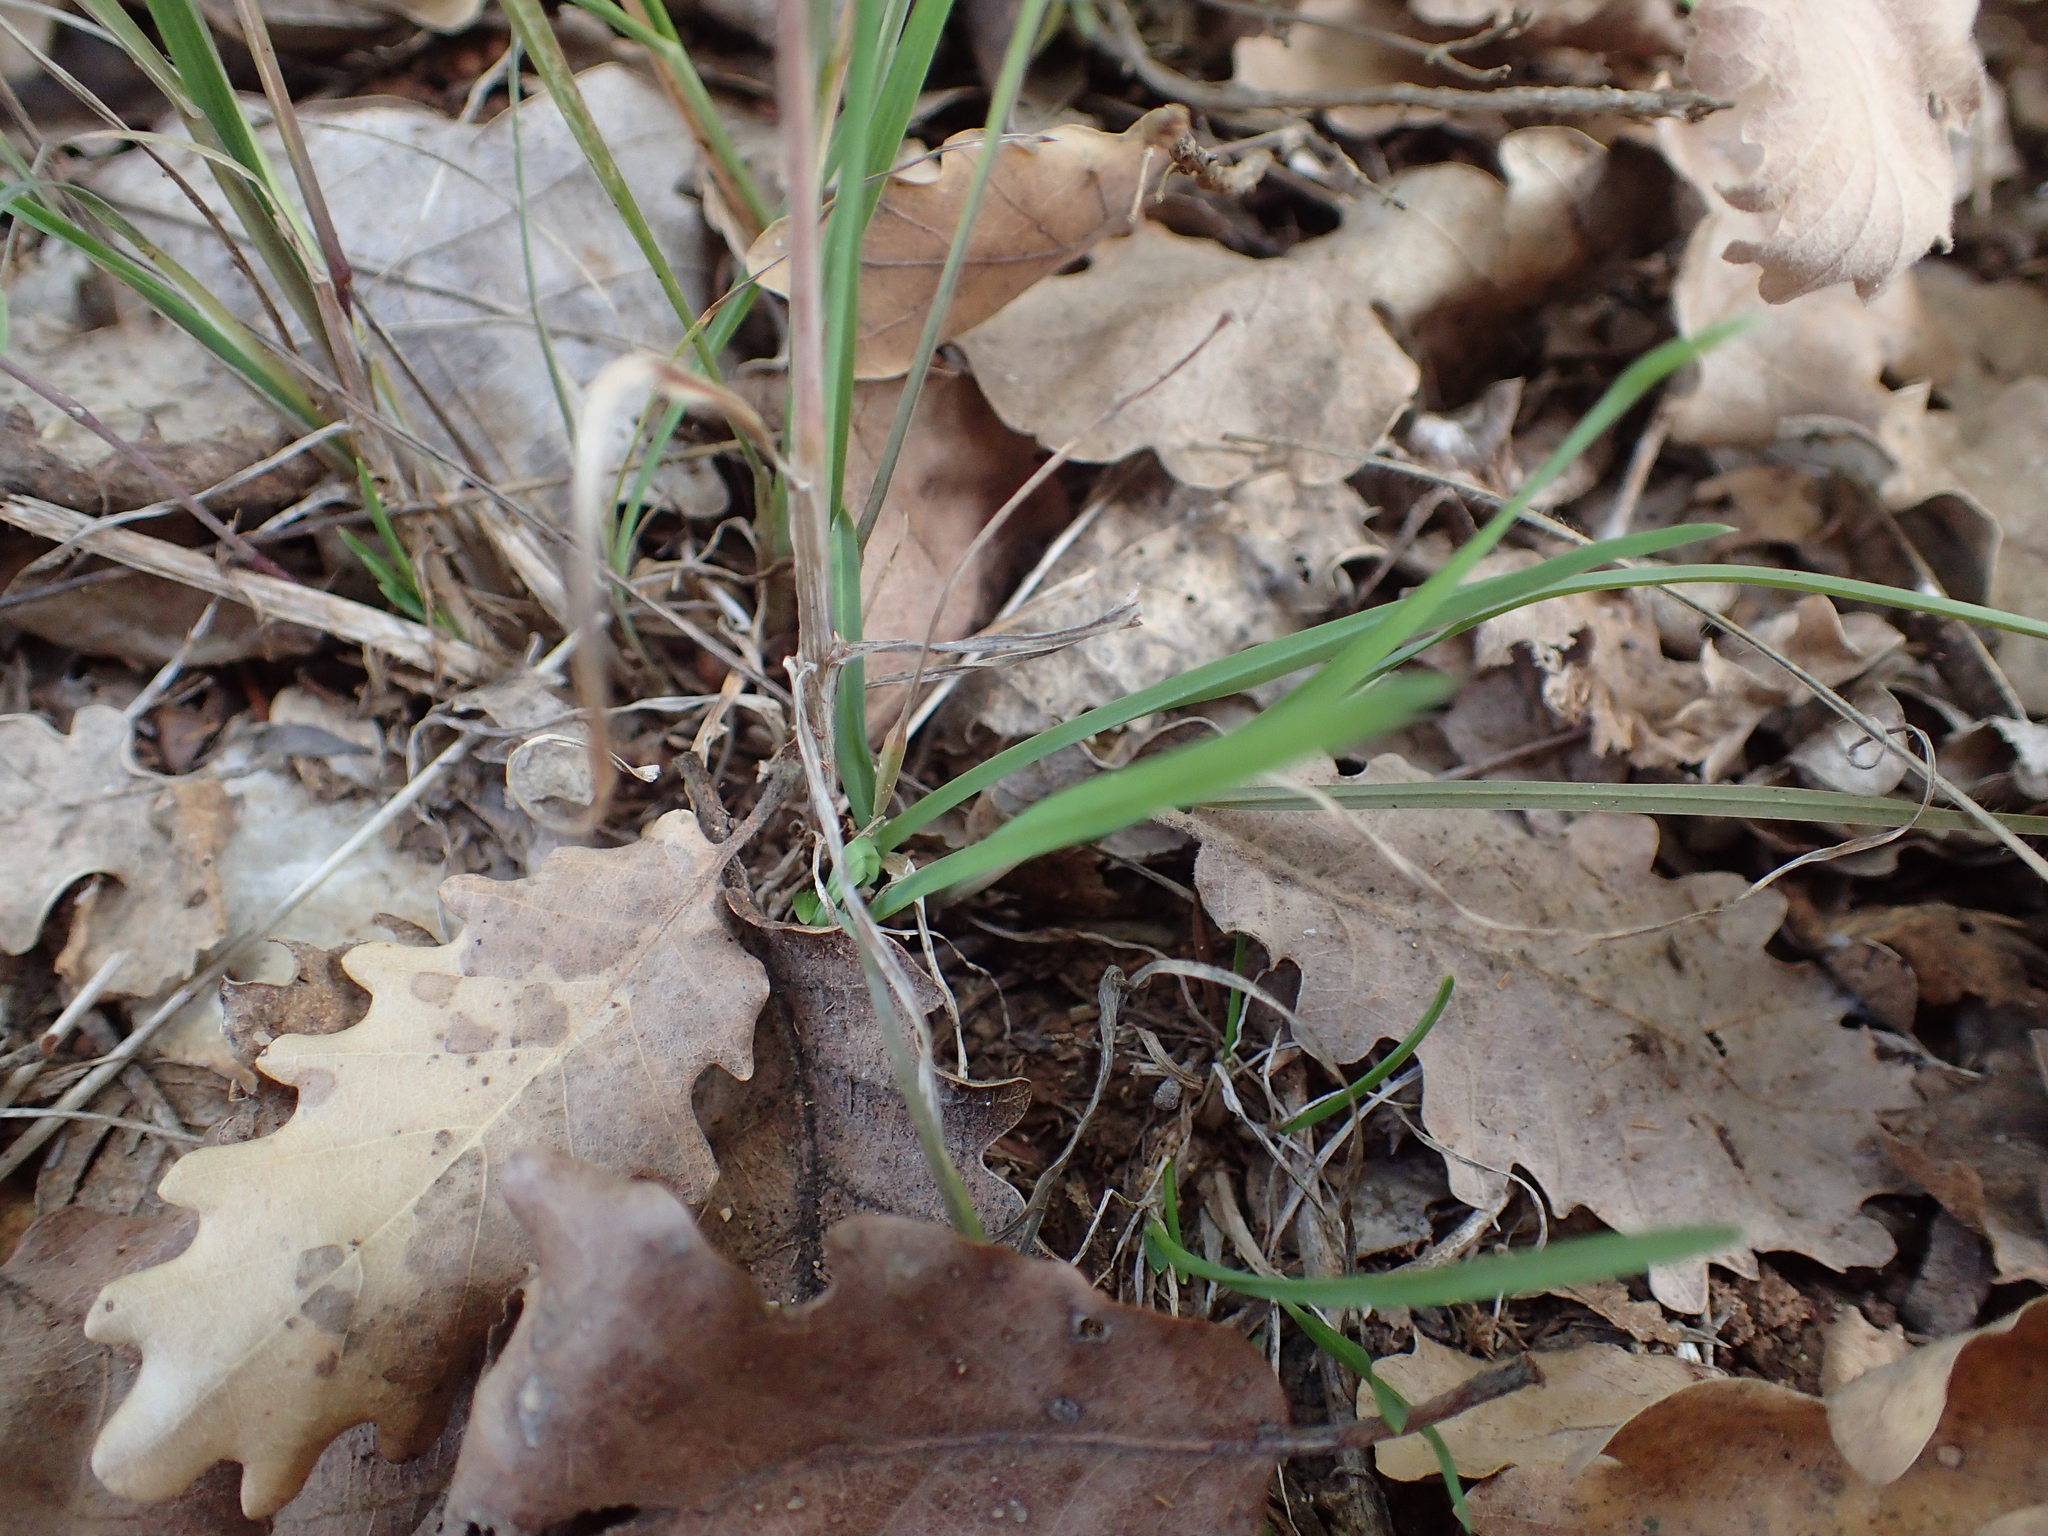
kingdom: Plantae
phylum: Tracheophyta
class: Liliopsida
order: Poales
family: Poaceae
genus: Dactylis
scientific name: Dactylis glomerata
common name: Orchardgrass
